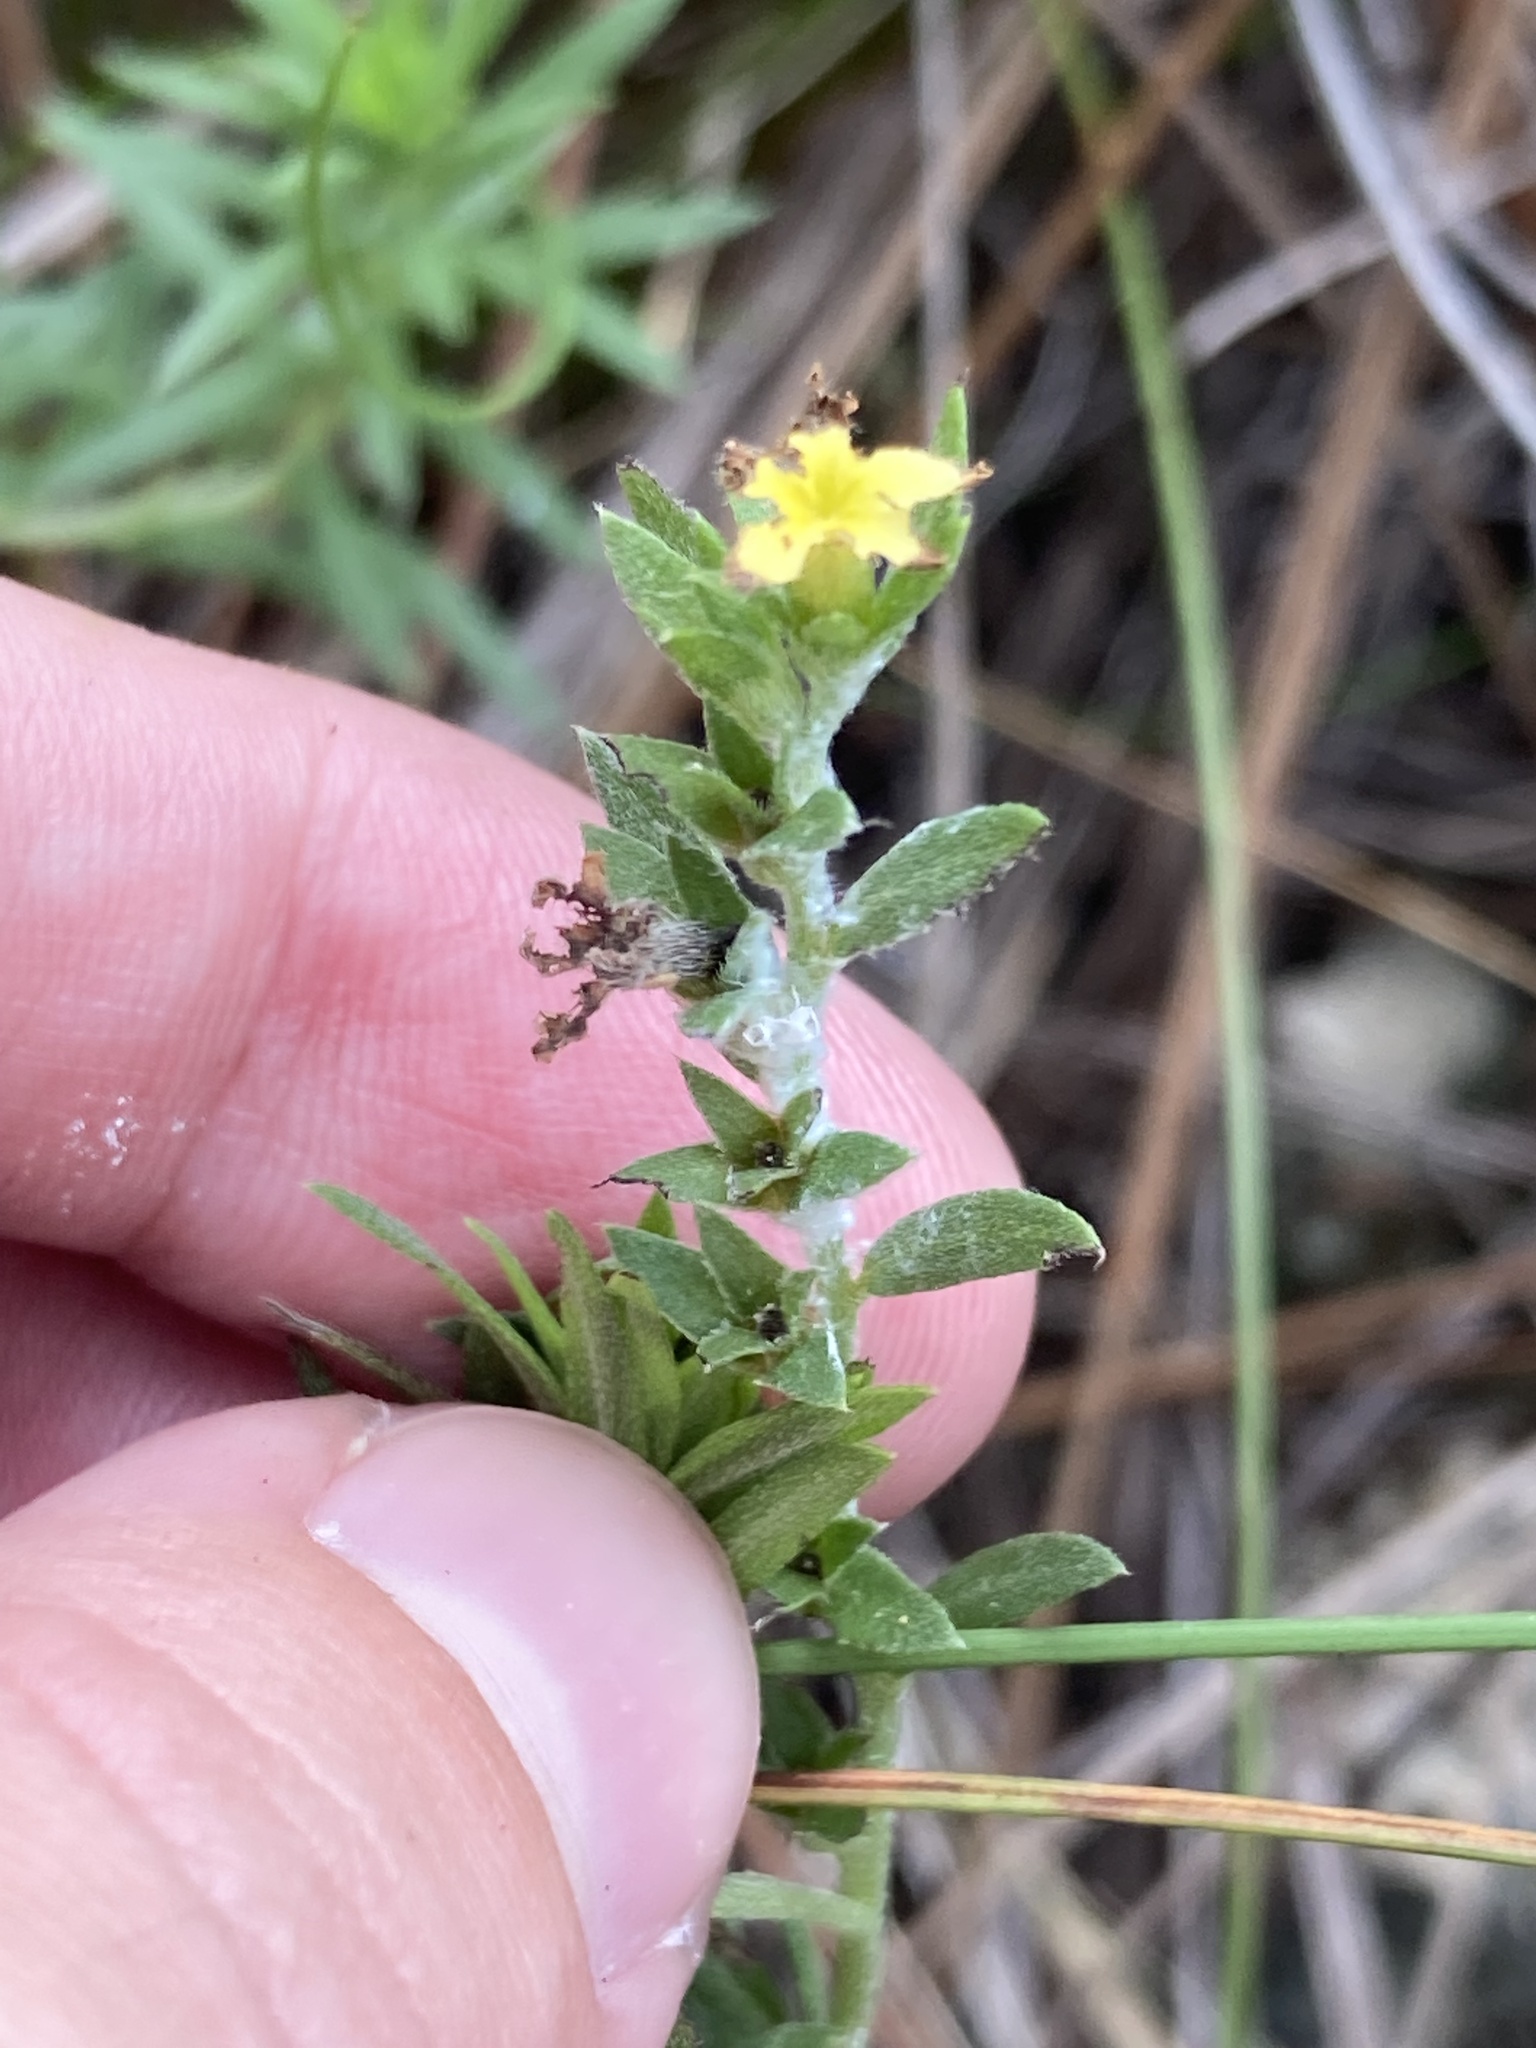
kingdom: Plantae
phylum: Tracheophyta
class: Magnoliopsida
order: Boraginales
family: Heliotropiaceae
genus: Euploca
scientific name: Euploca polyphylla
